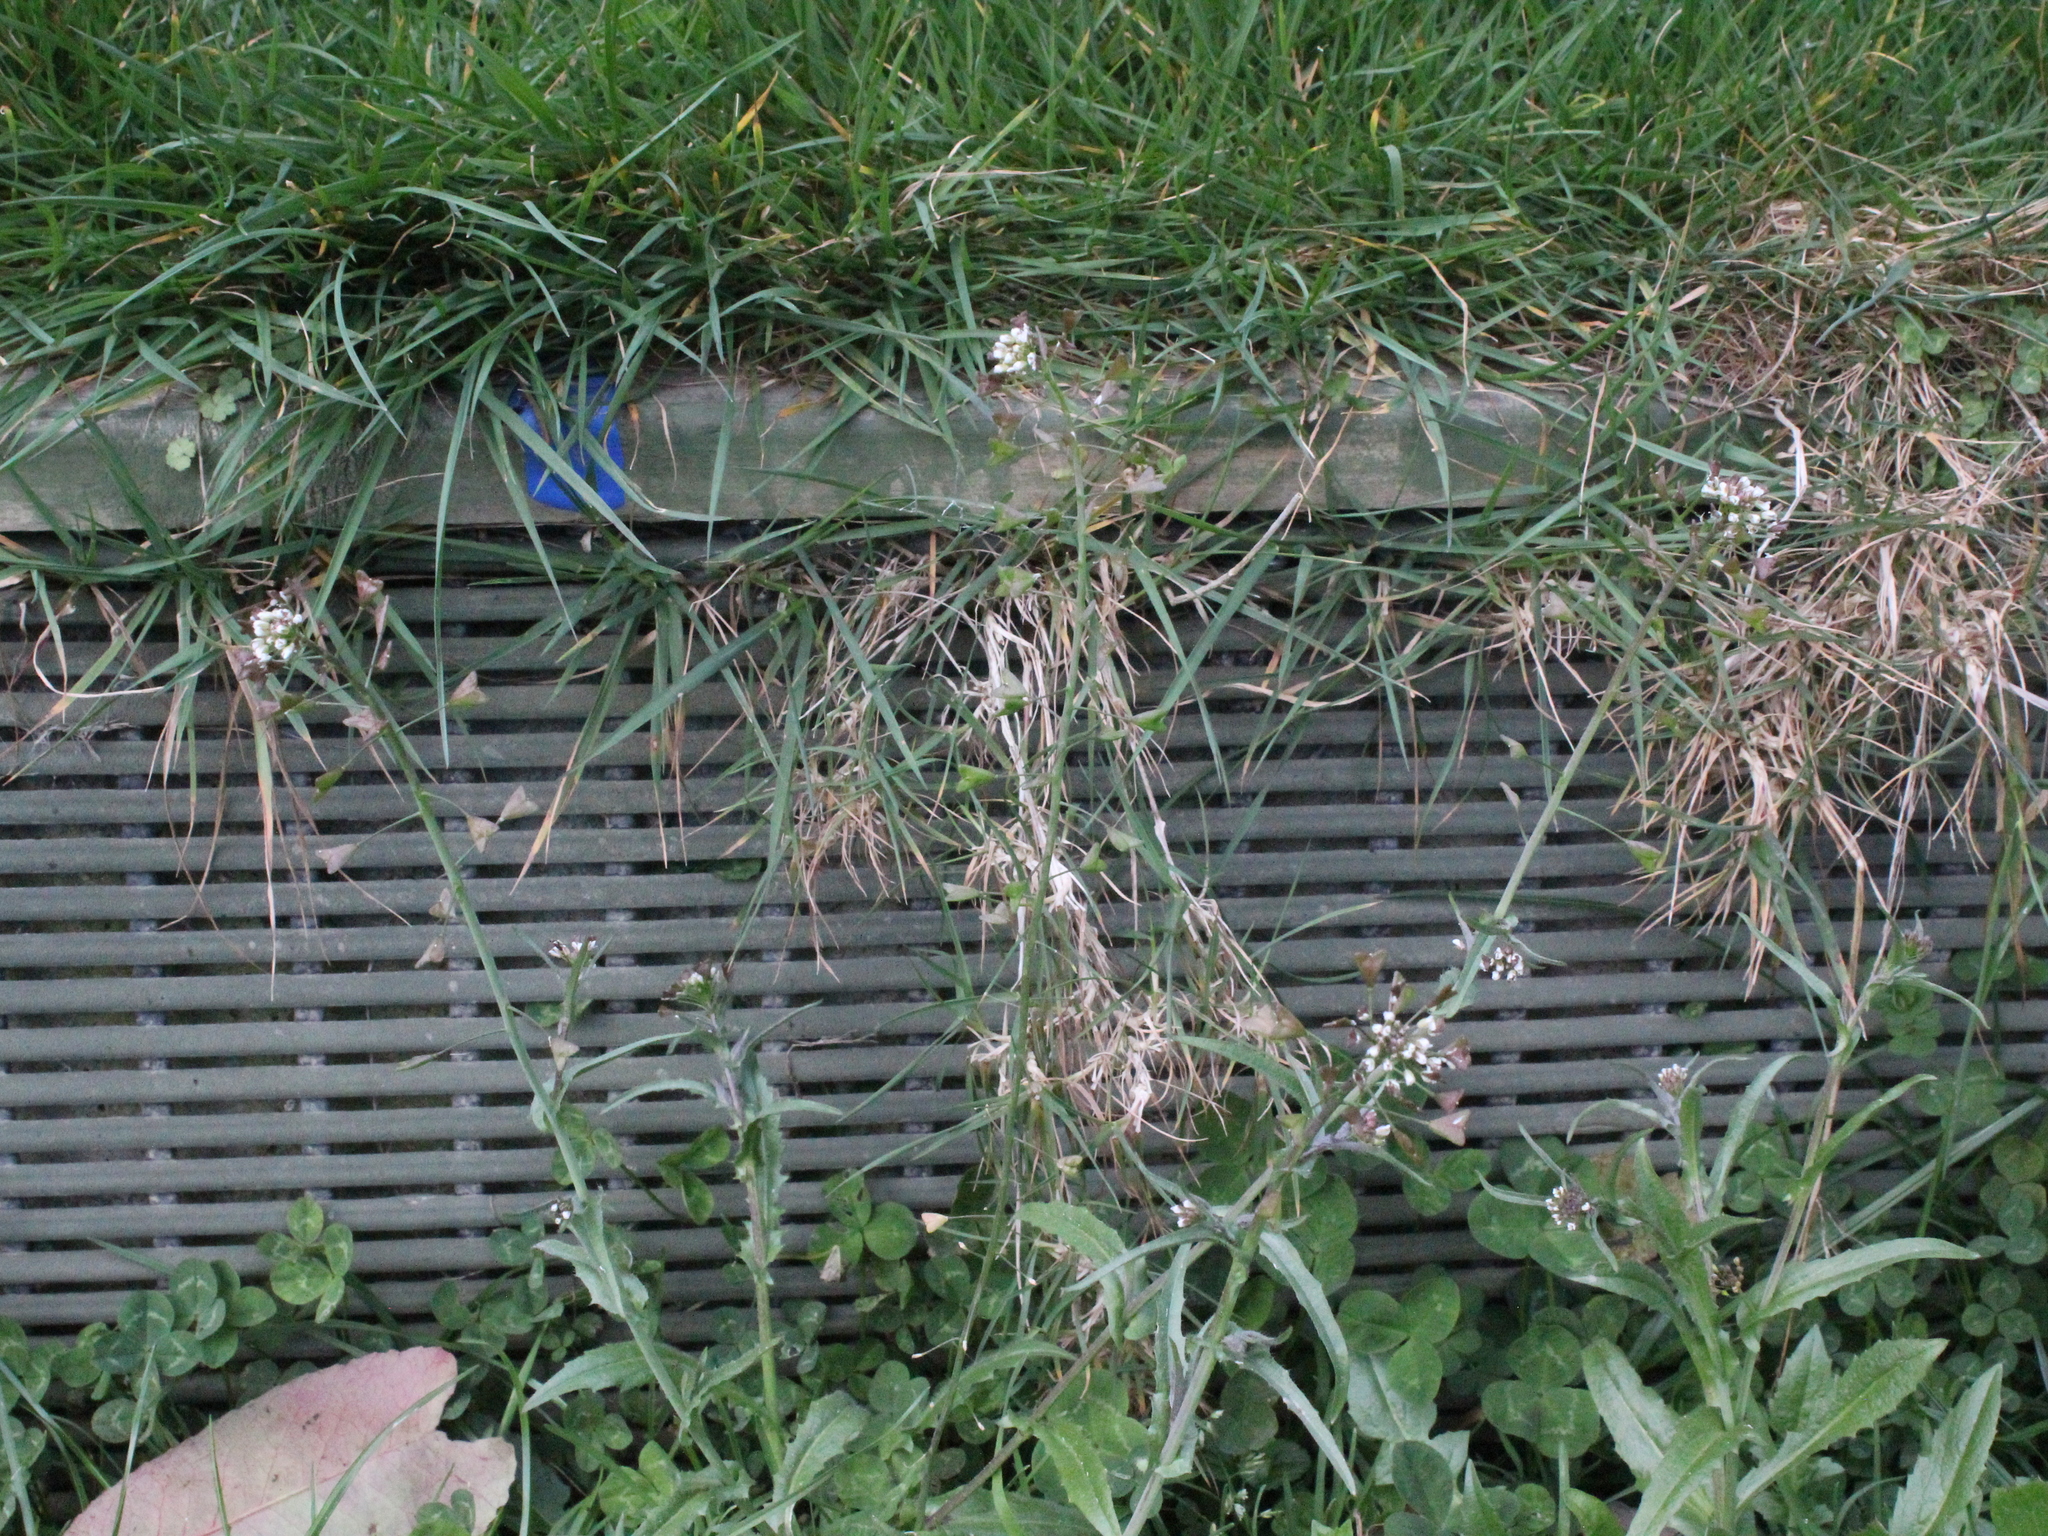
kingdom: Plantae
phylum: Tracheophyta
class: Magnoliopsida
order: Brassicales
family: Brassicaceae
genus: Capsella
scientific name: Capsella bursa-pastoris
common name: Shepherd's purse
